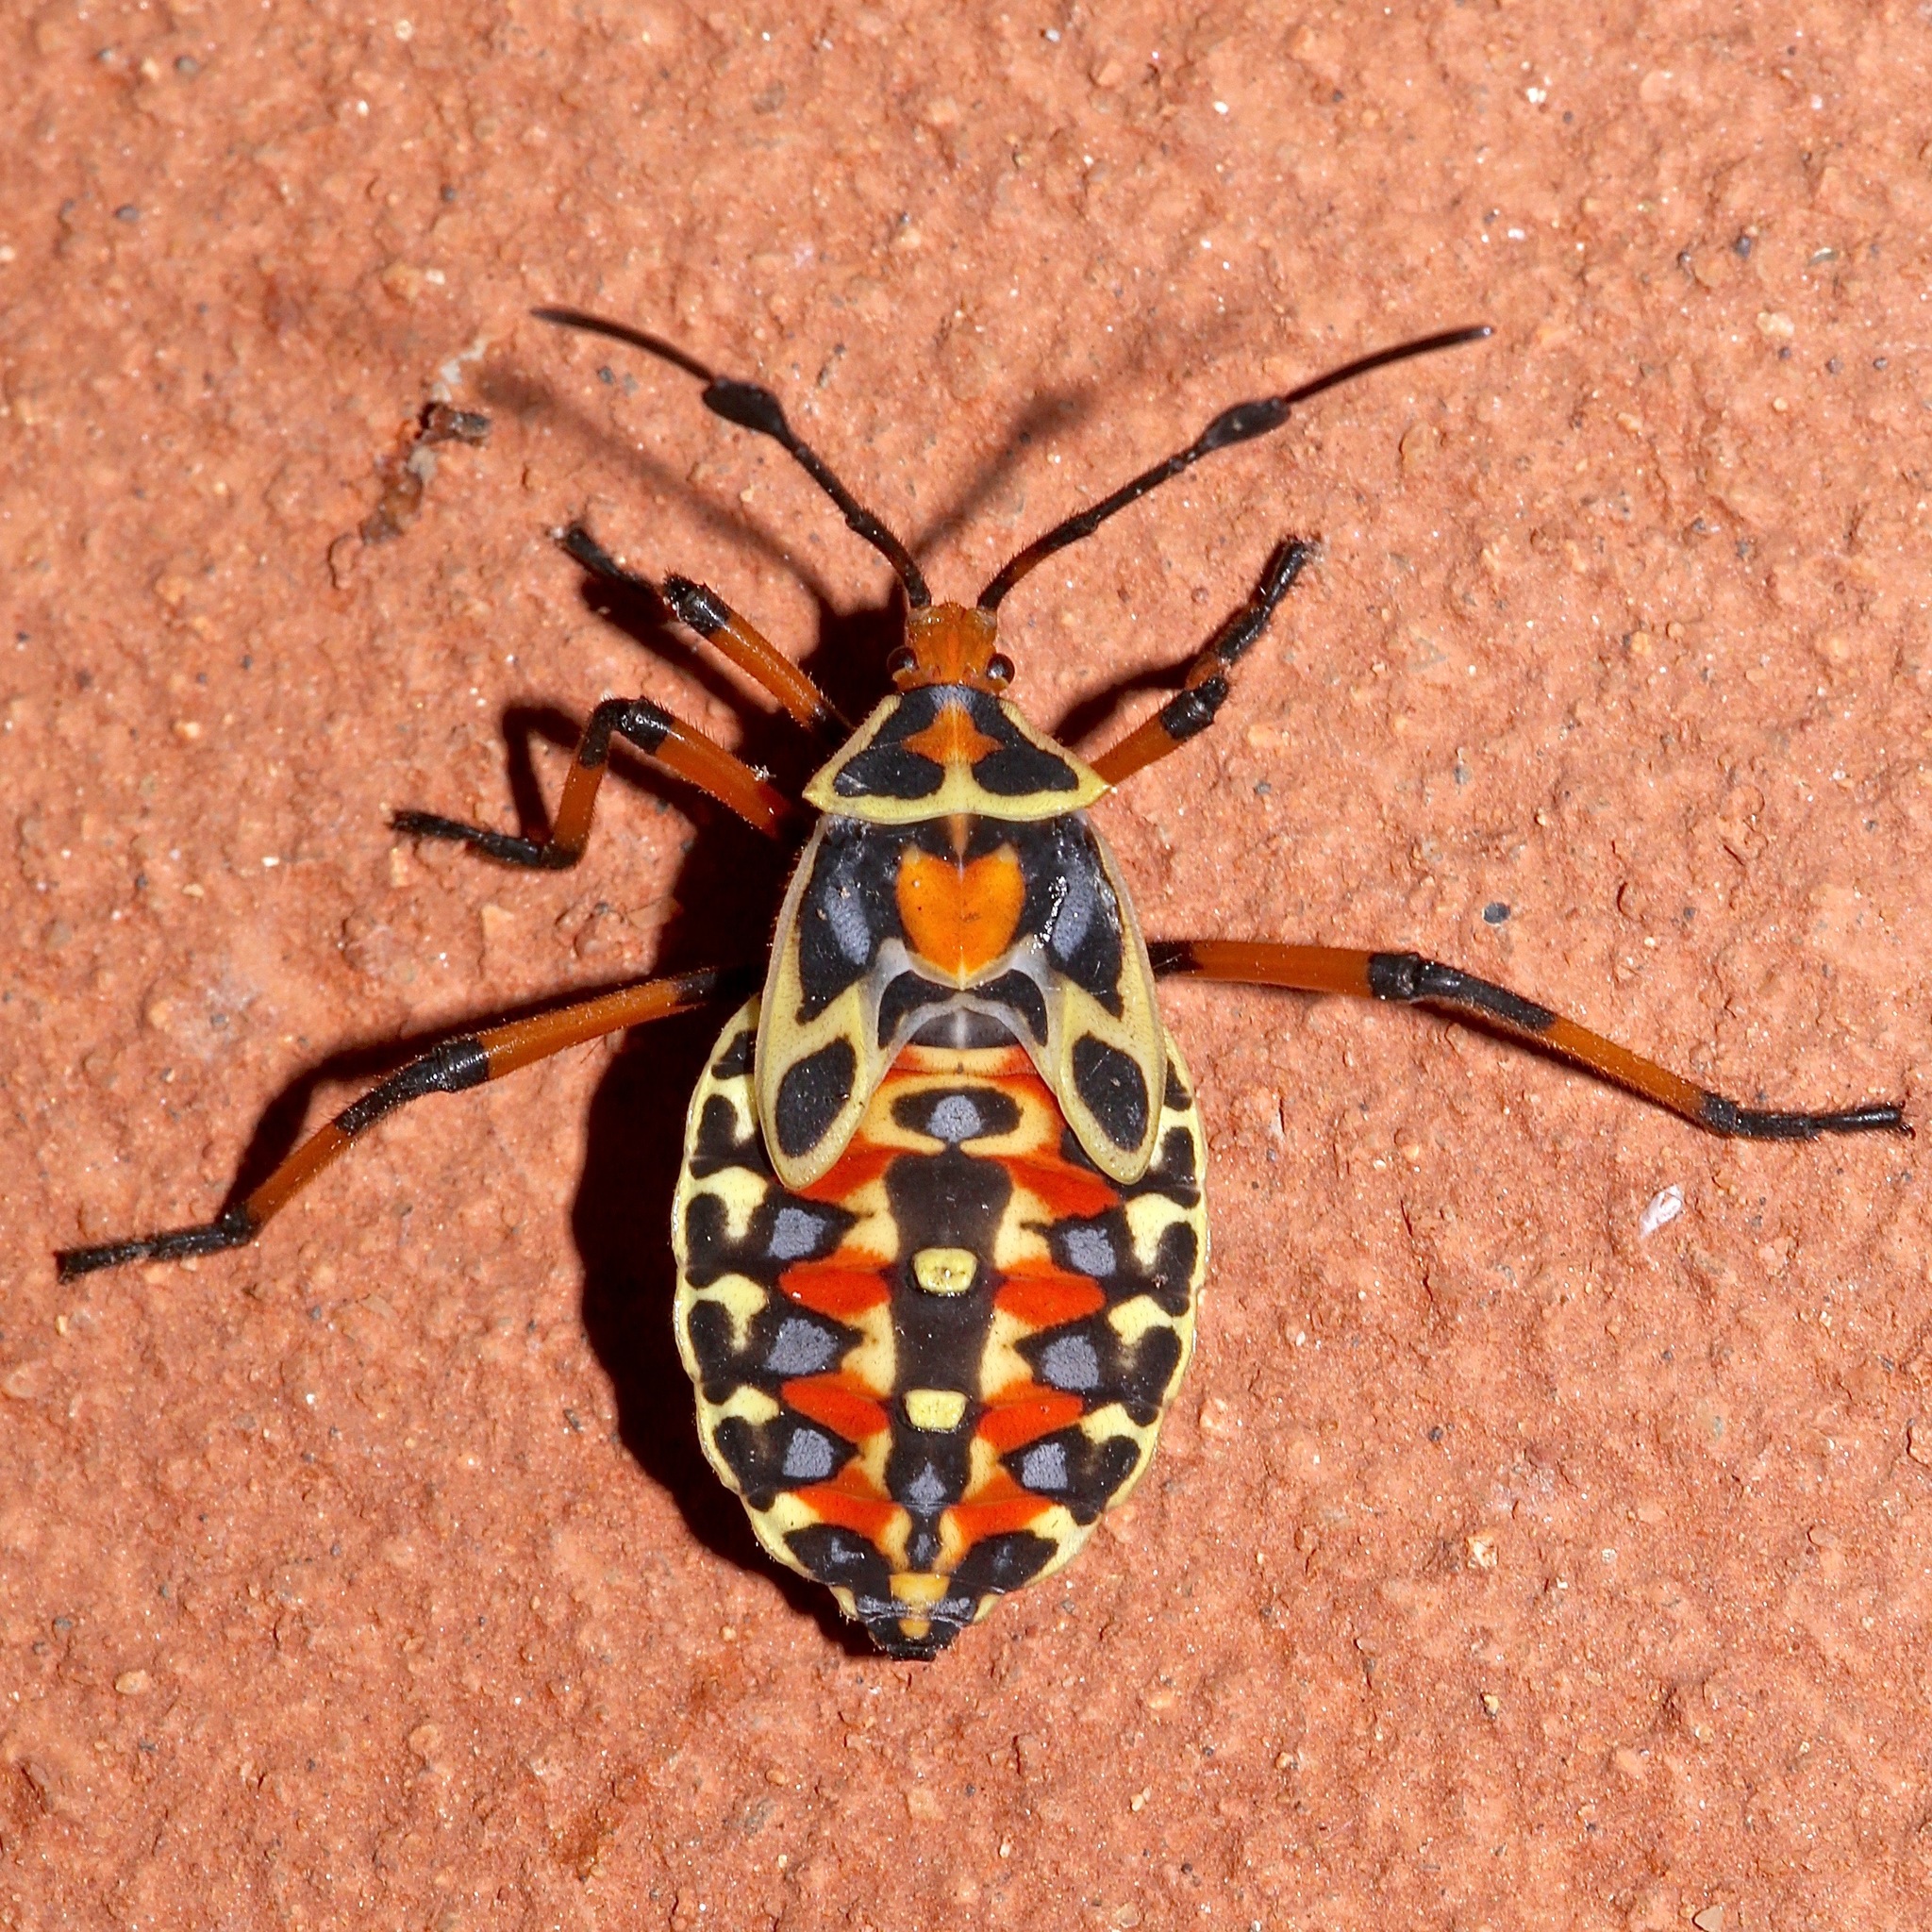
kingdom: Animalia
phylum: Arthropoda
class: Insecta
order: Hemiptera
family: Coreidae
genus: Pachylis
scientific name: Pachylis nervosus
